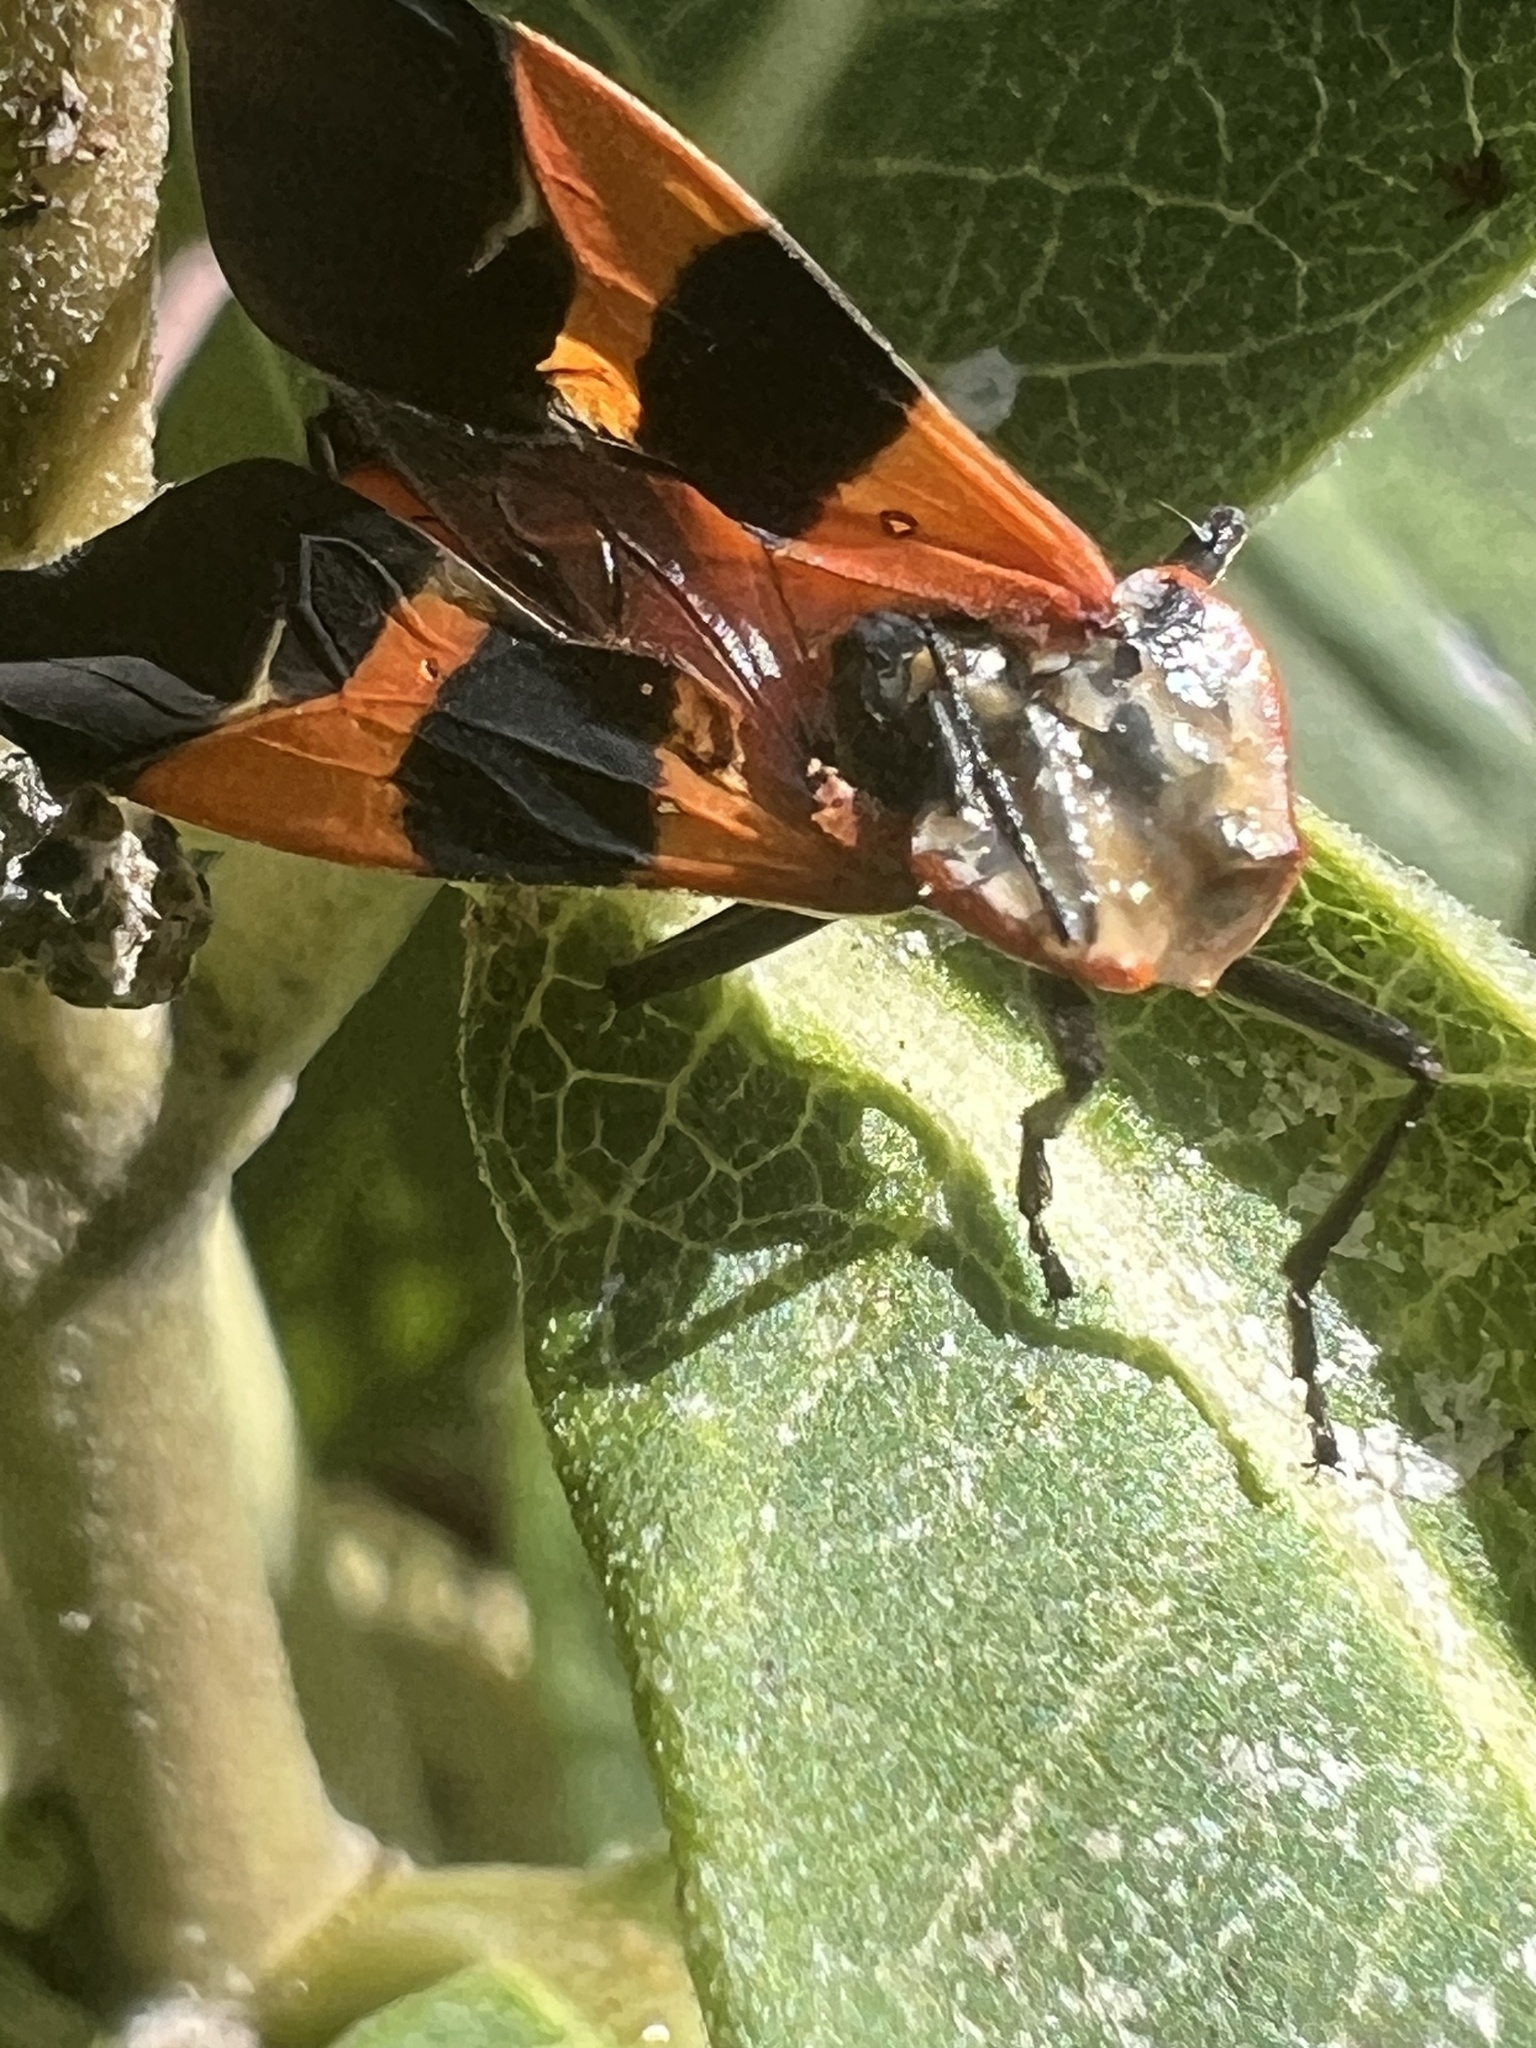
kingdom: Animalia
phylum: Arthropoda
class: Insecta
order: Hemiptera
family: Lygaeidae
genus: Oncopeltus
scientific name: Oncopeltus fasciatus
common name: Large milkweed bug
